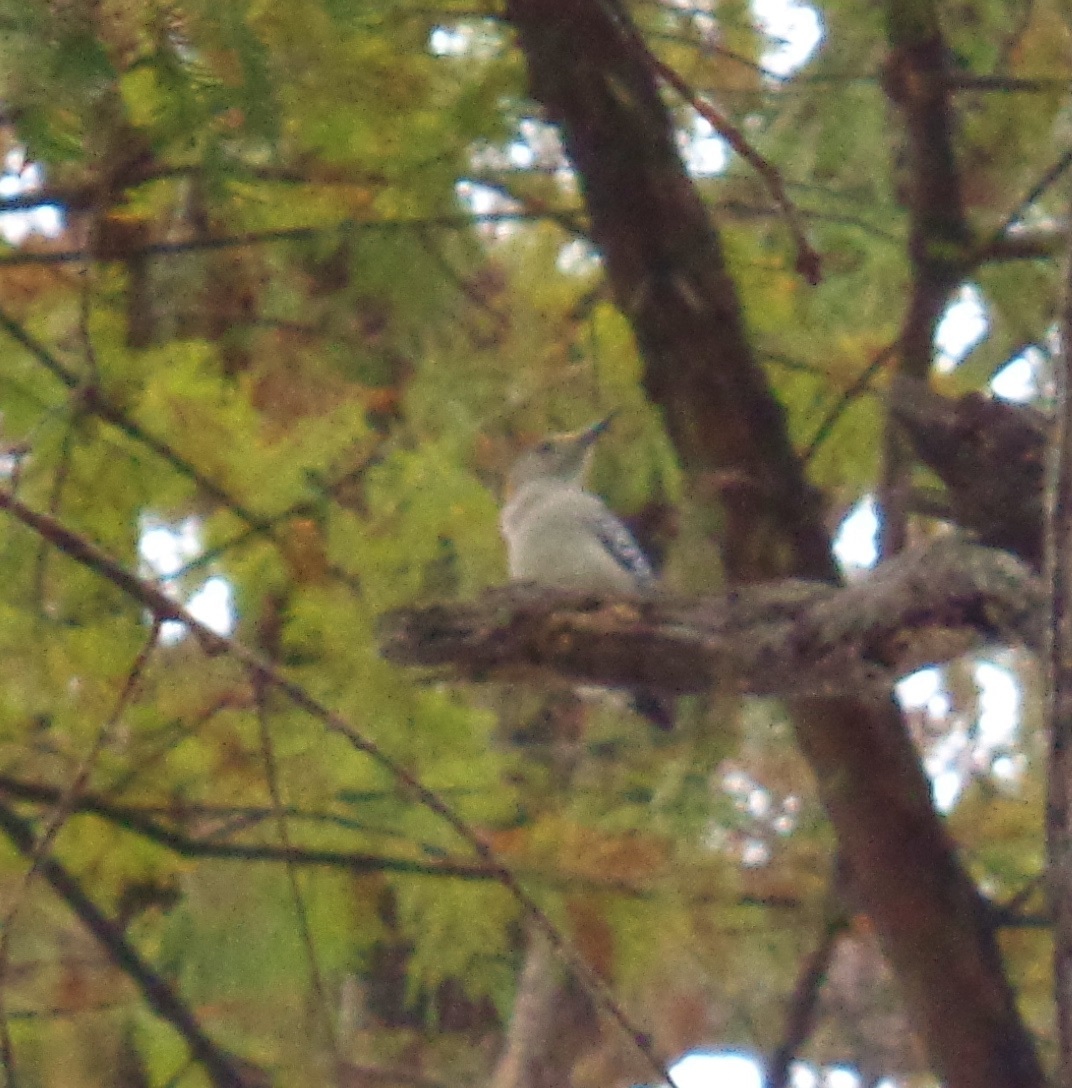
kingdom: Animalia
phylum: Chordata
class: Aves
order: Piciformes
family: Picidae
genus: Melanerpes
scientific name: Melanerpes aurifrons
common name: Golden-fronted woodpecker
